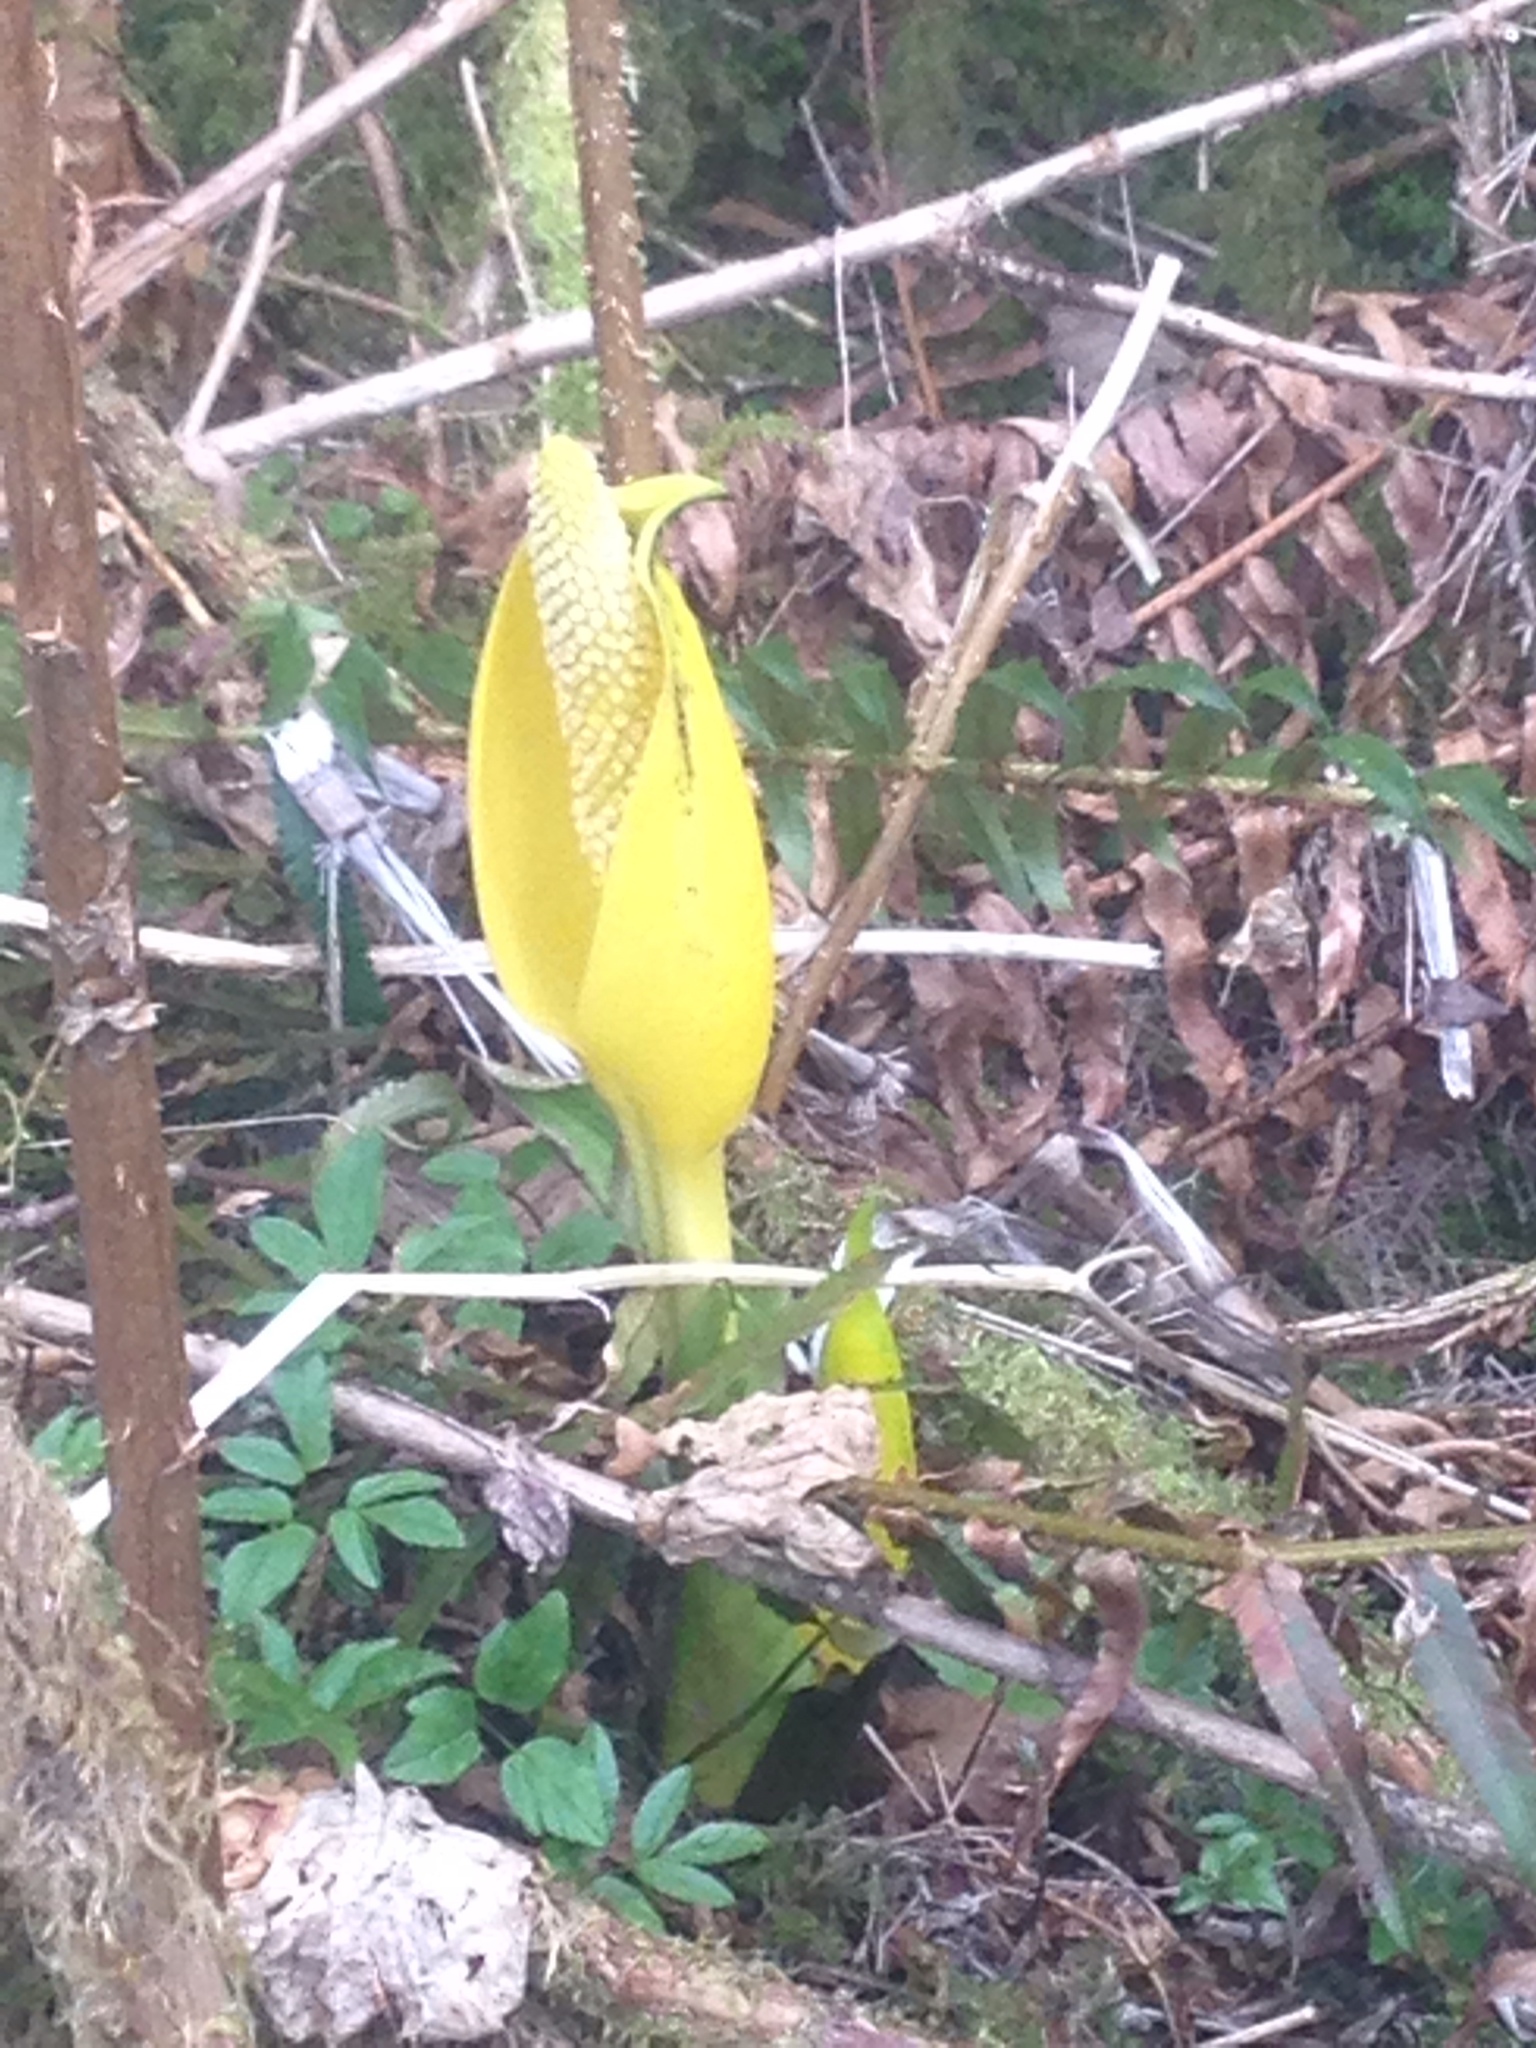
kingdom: Plantae
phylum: Tracheophyta
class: Liliopsida
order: Alismatales
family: Araceae
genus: Lysichiton
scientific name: Lysichiton americanus
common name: American skunk cabbage
